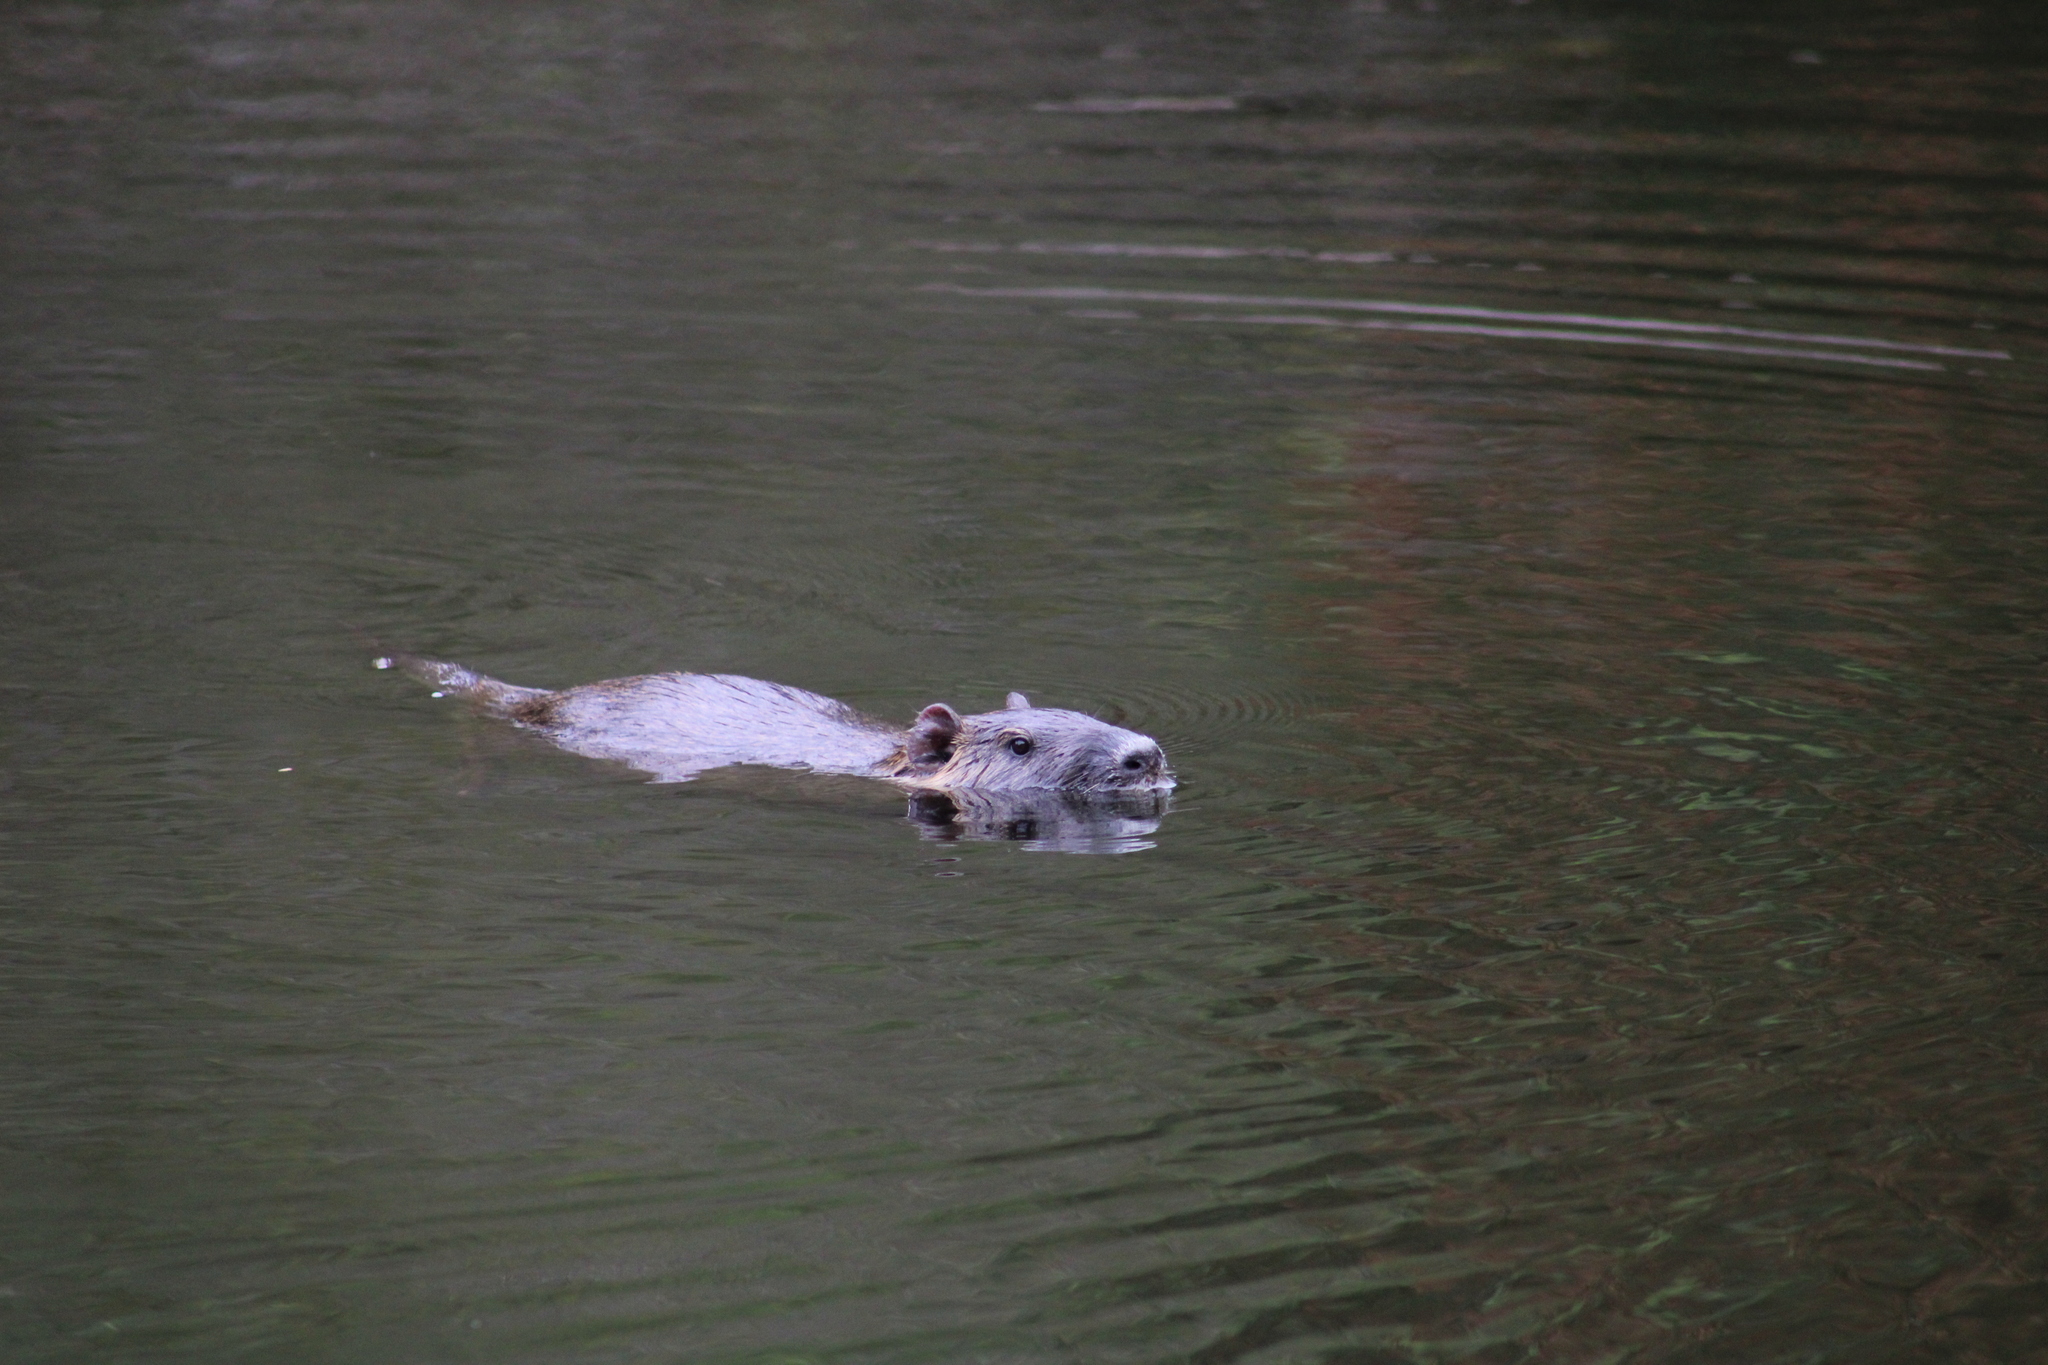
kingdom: Animalia
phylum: Chordata
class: Mammalia
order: Rodentia
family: Myocastoridae
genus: Myocastor
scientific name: Myocastor coypus
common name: Coypu
